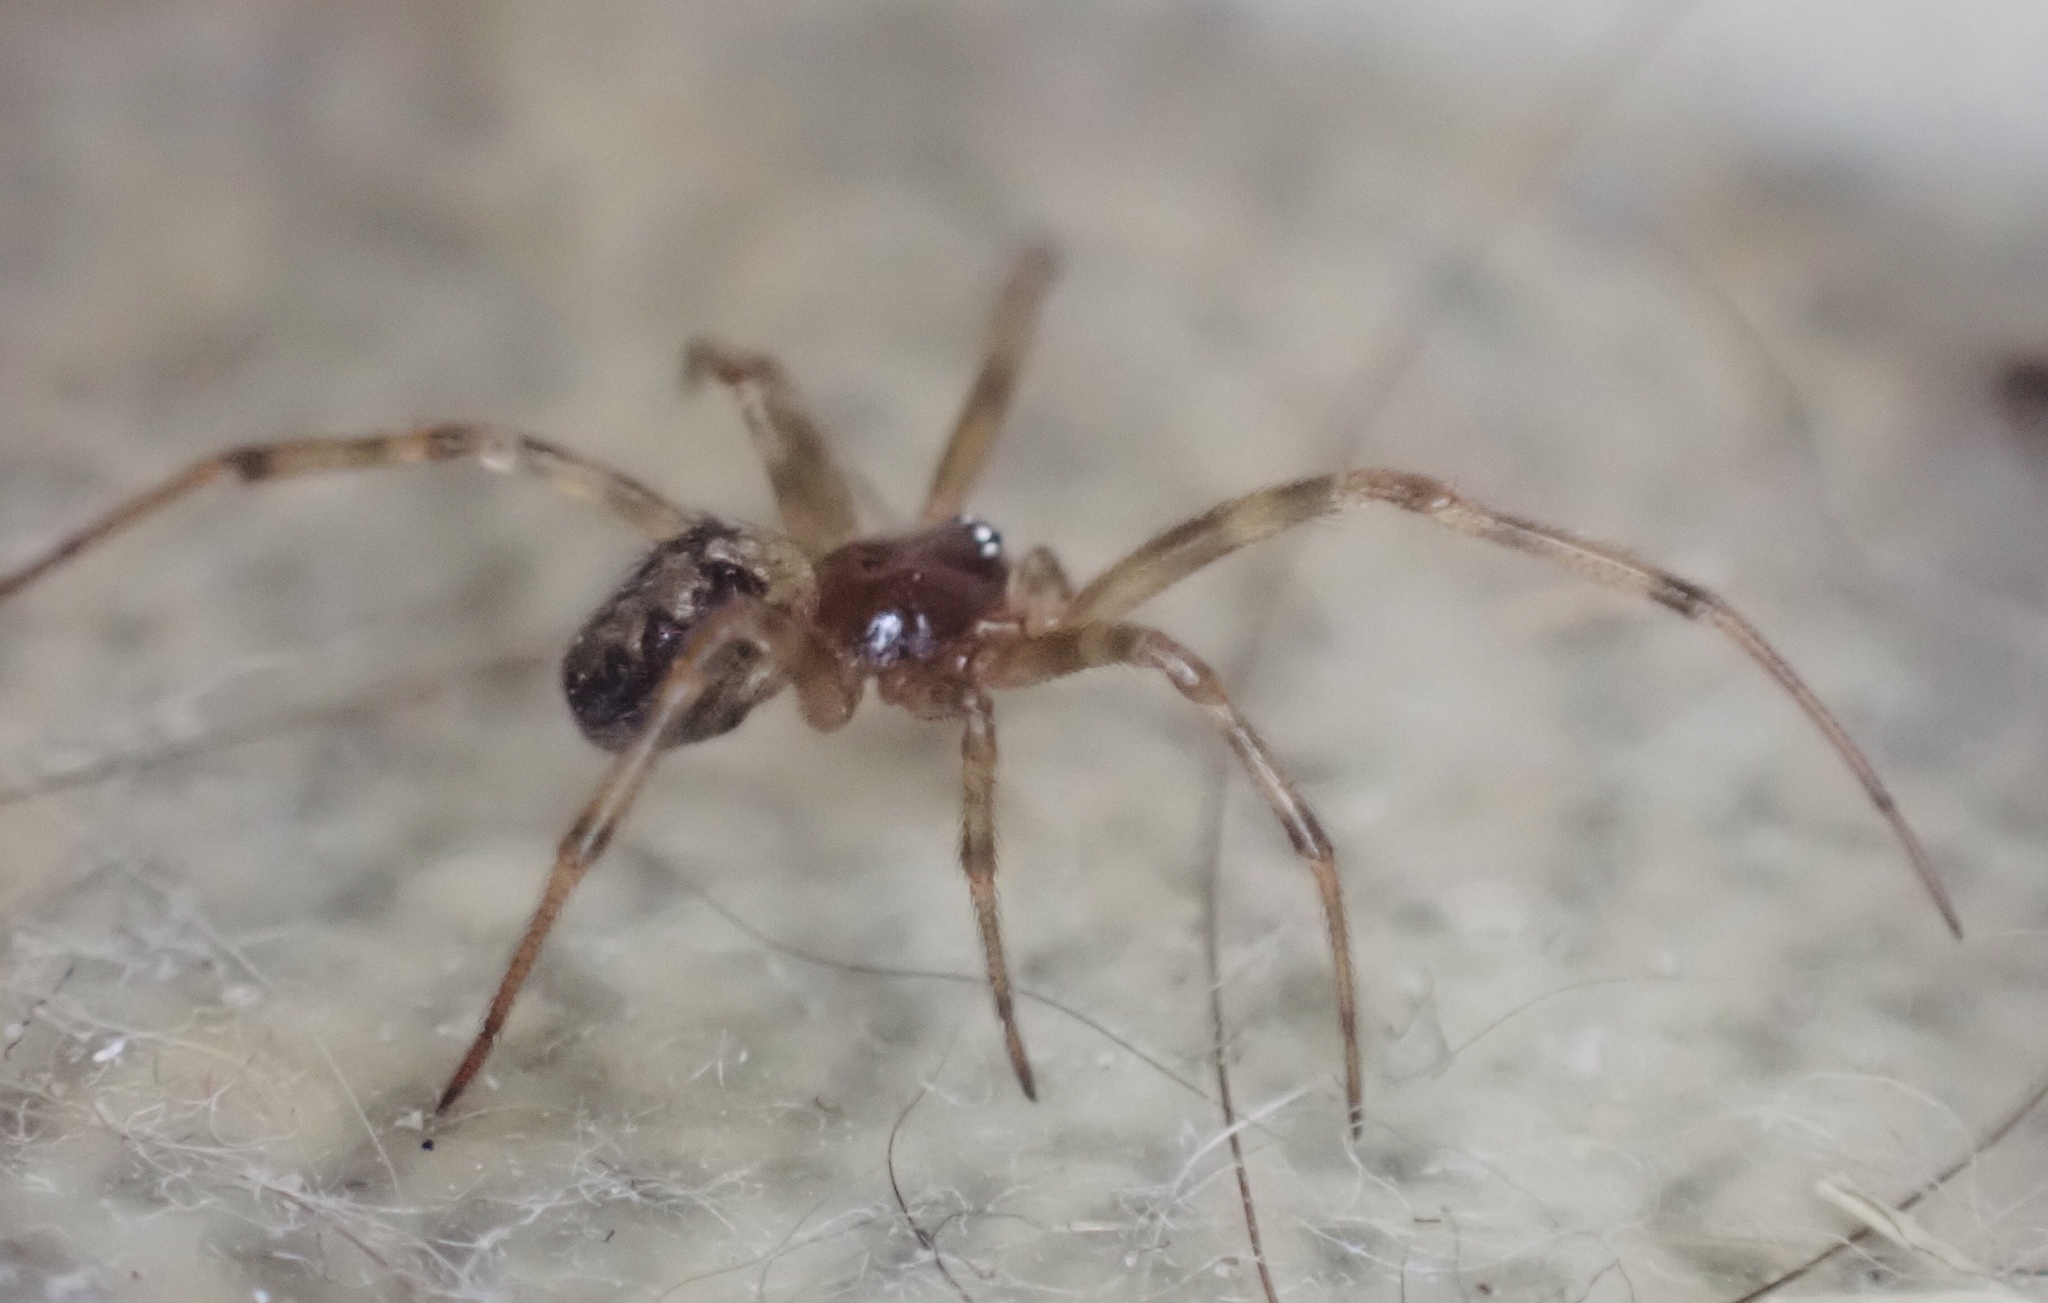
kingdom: Animalia
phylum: Arthropoda
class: Arachnida
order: Araneae
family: Theridiidae
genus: Steatoda
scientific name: Steatoda triangulosa
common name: Triangulate bud spider
